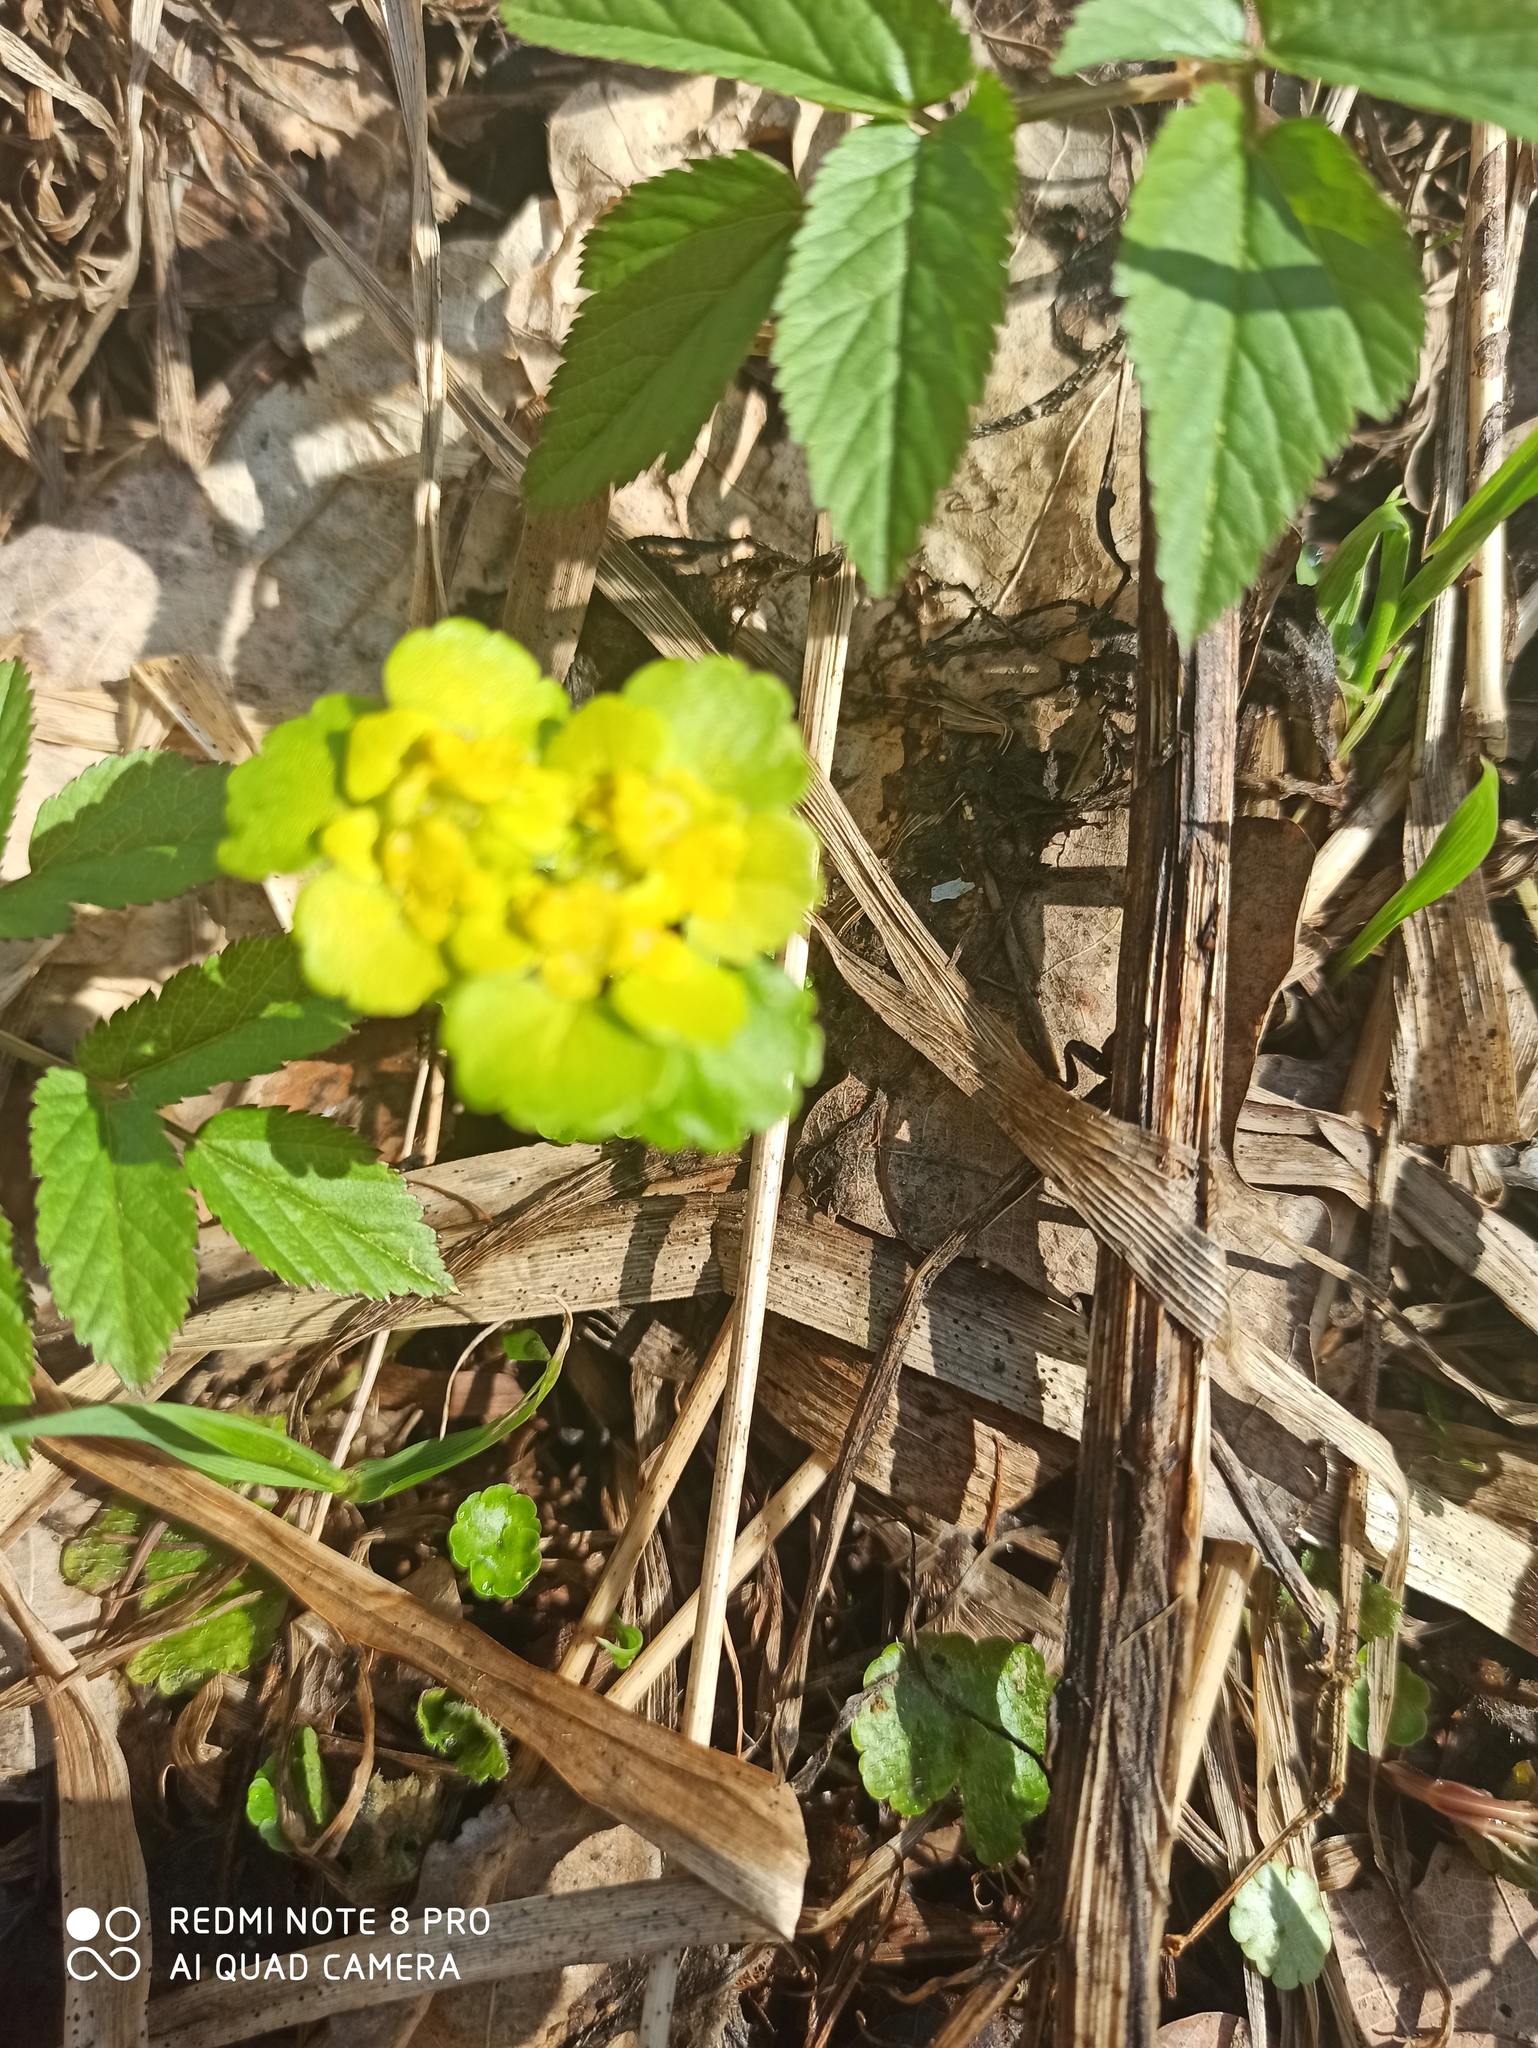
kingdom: Plantae
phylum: Tracheophyta
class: Magnoliopsida
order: Saxifragales
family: Saxifragaceae
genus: Chrysosplenium
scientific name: Chrysosplenium alternifolium
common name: Alternate-leaved golden-saxifrage
